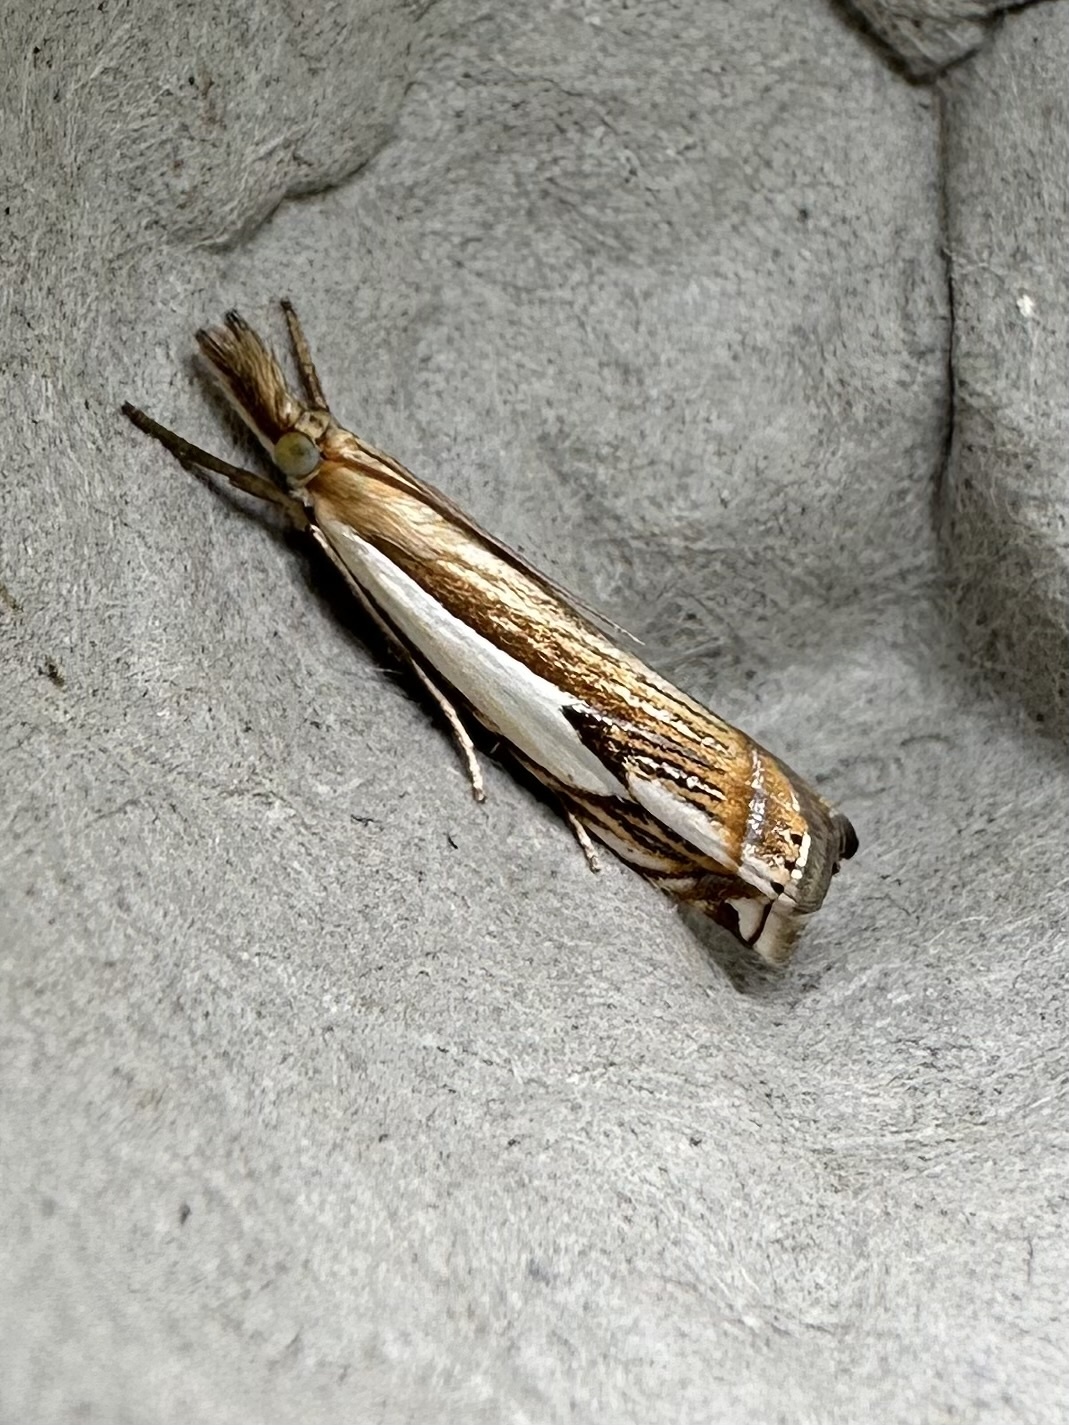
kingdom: Animalia
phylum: Arthropoda
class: Insecta
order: Lepidoptera
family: Crambidae
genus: Crambus
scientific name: Crambus agitatellus
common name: Double-banded grass-veneer
